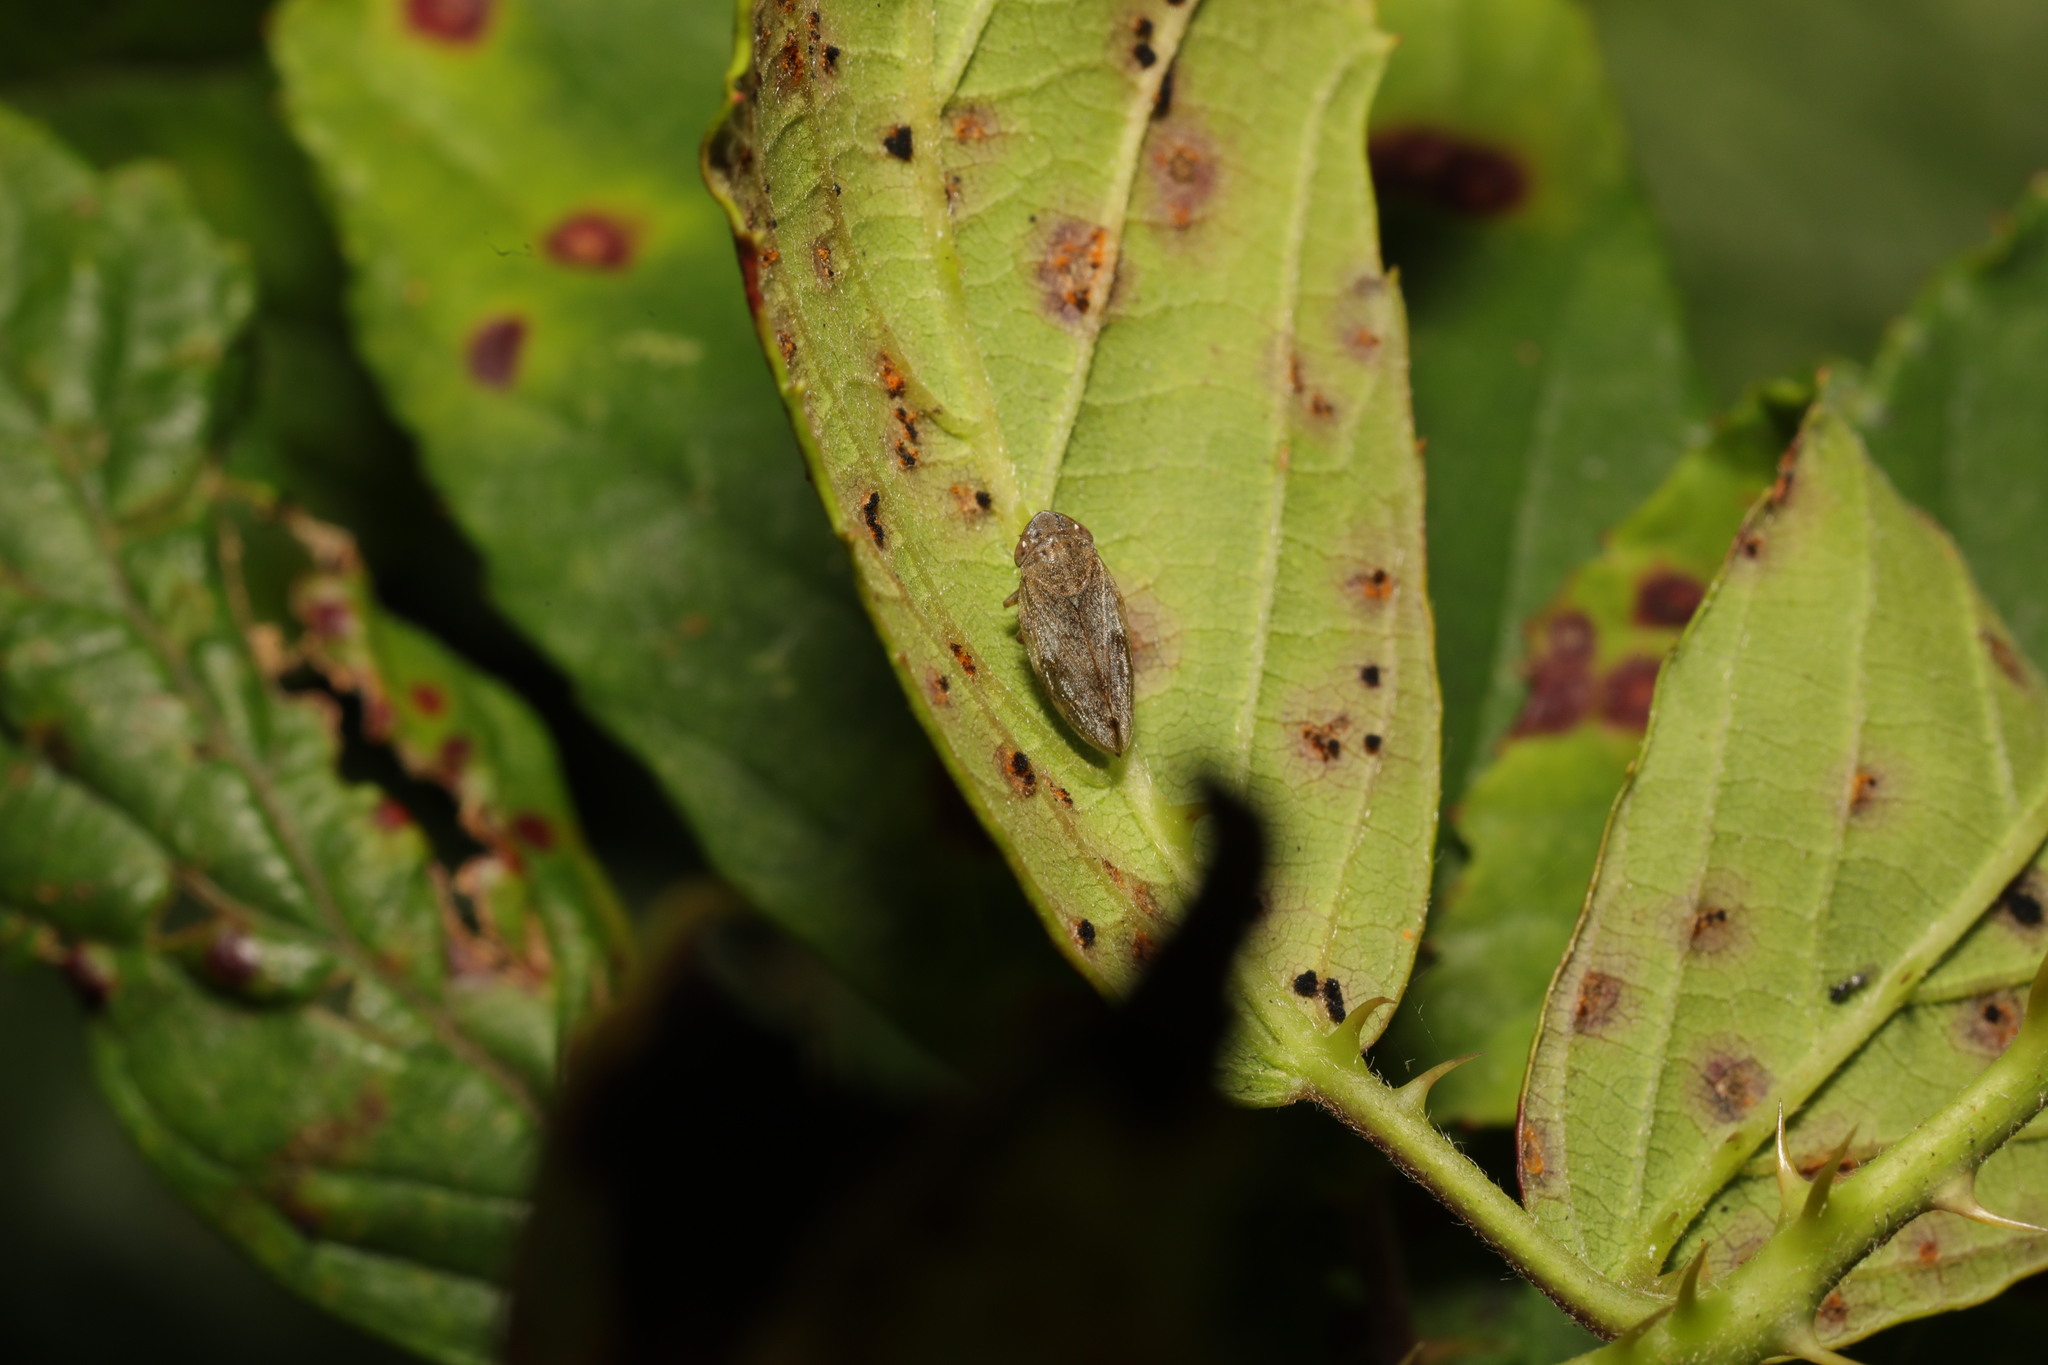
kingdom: Animalia
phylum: Arthropoda
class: Insecta
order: Hemiptera
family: Aphrophoridae
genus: Philaenus
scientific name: Philaenus spumarius
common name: Meadow spittlebug
